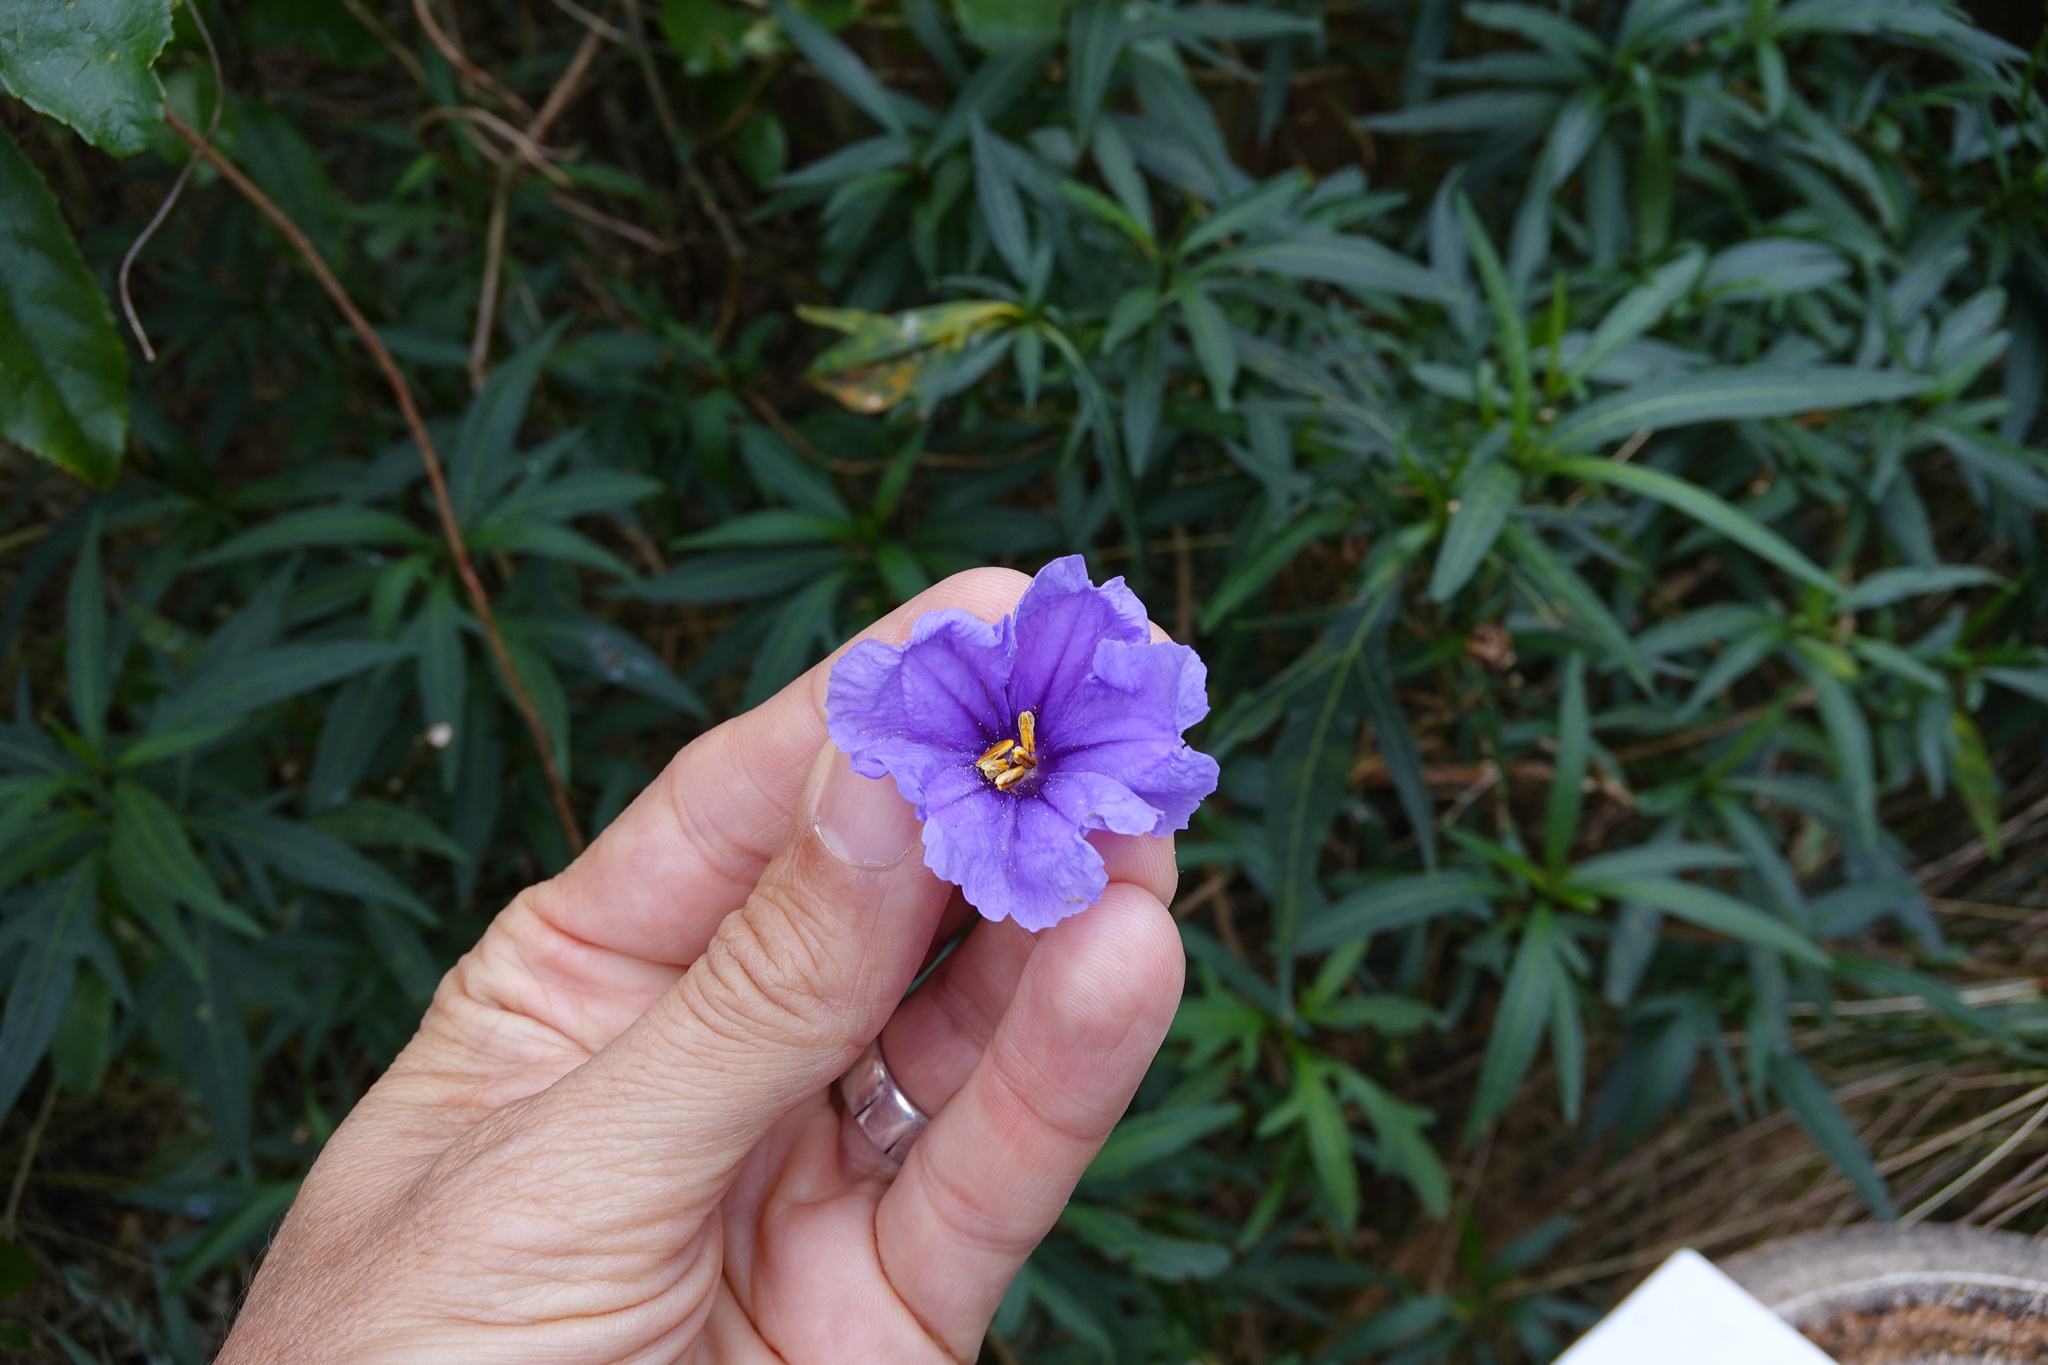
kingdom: Plantae
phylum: Tracheophyta
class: Magnoliopsida
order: Solanales
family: Solanaceae
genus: Solanum
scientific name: Solanum laciniatum
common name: Kangaroo-apple
